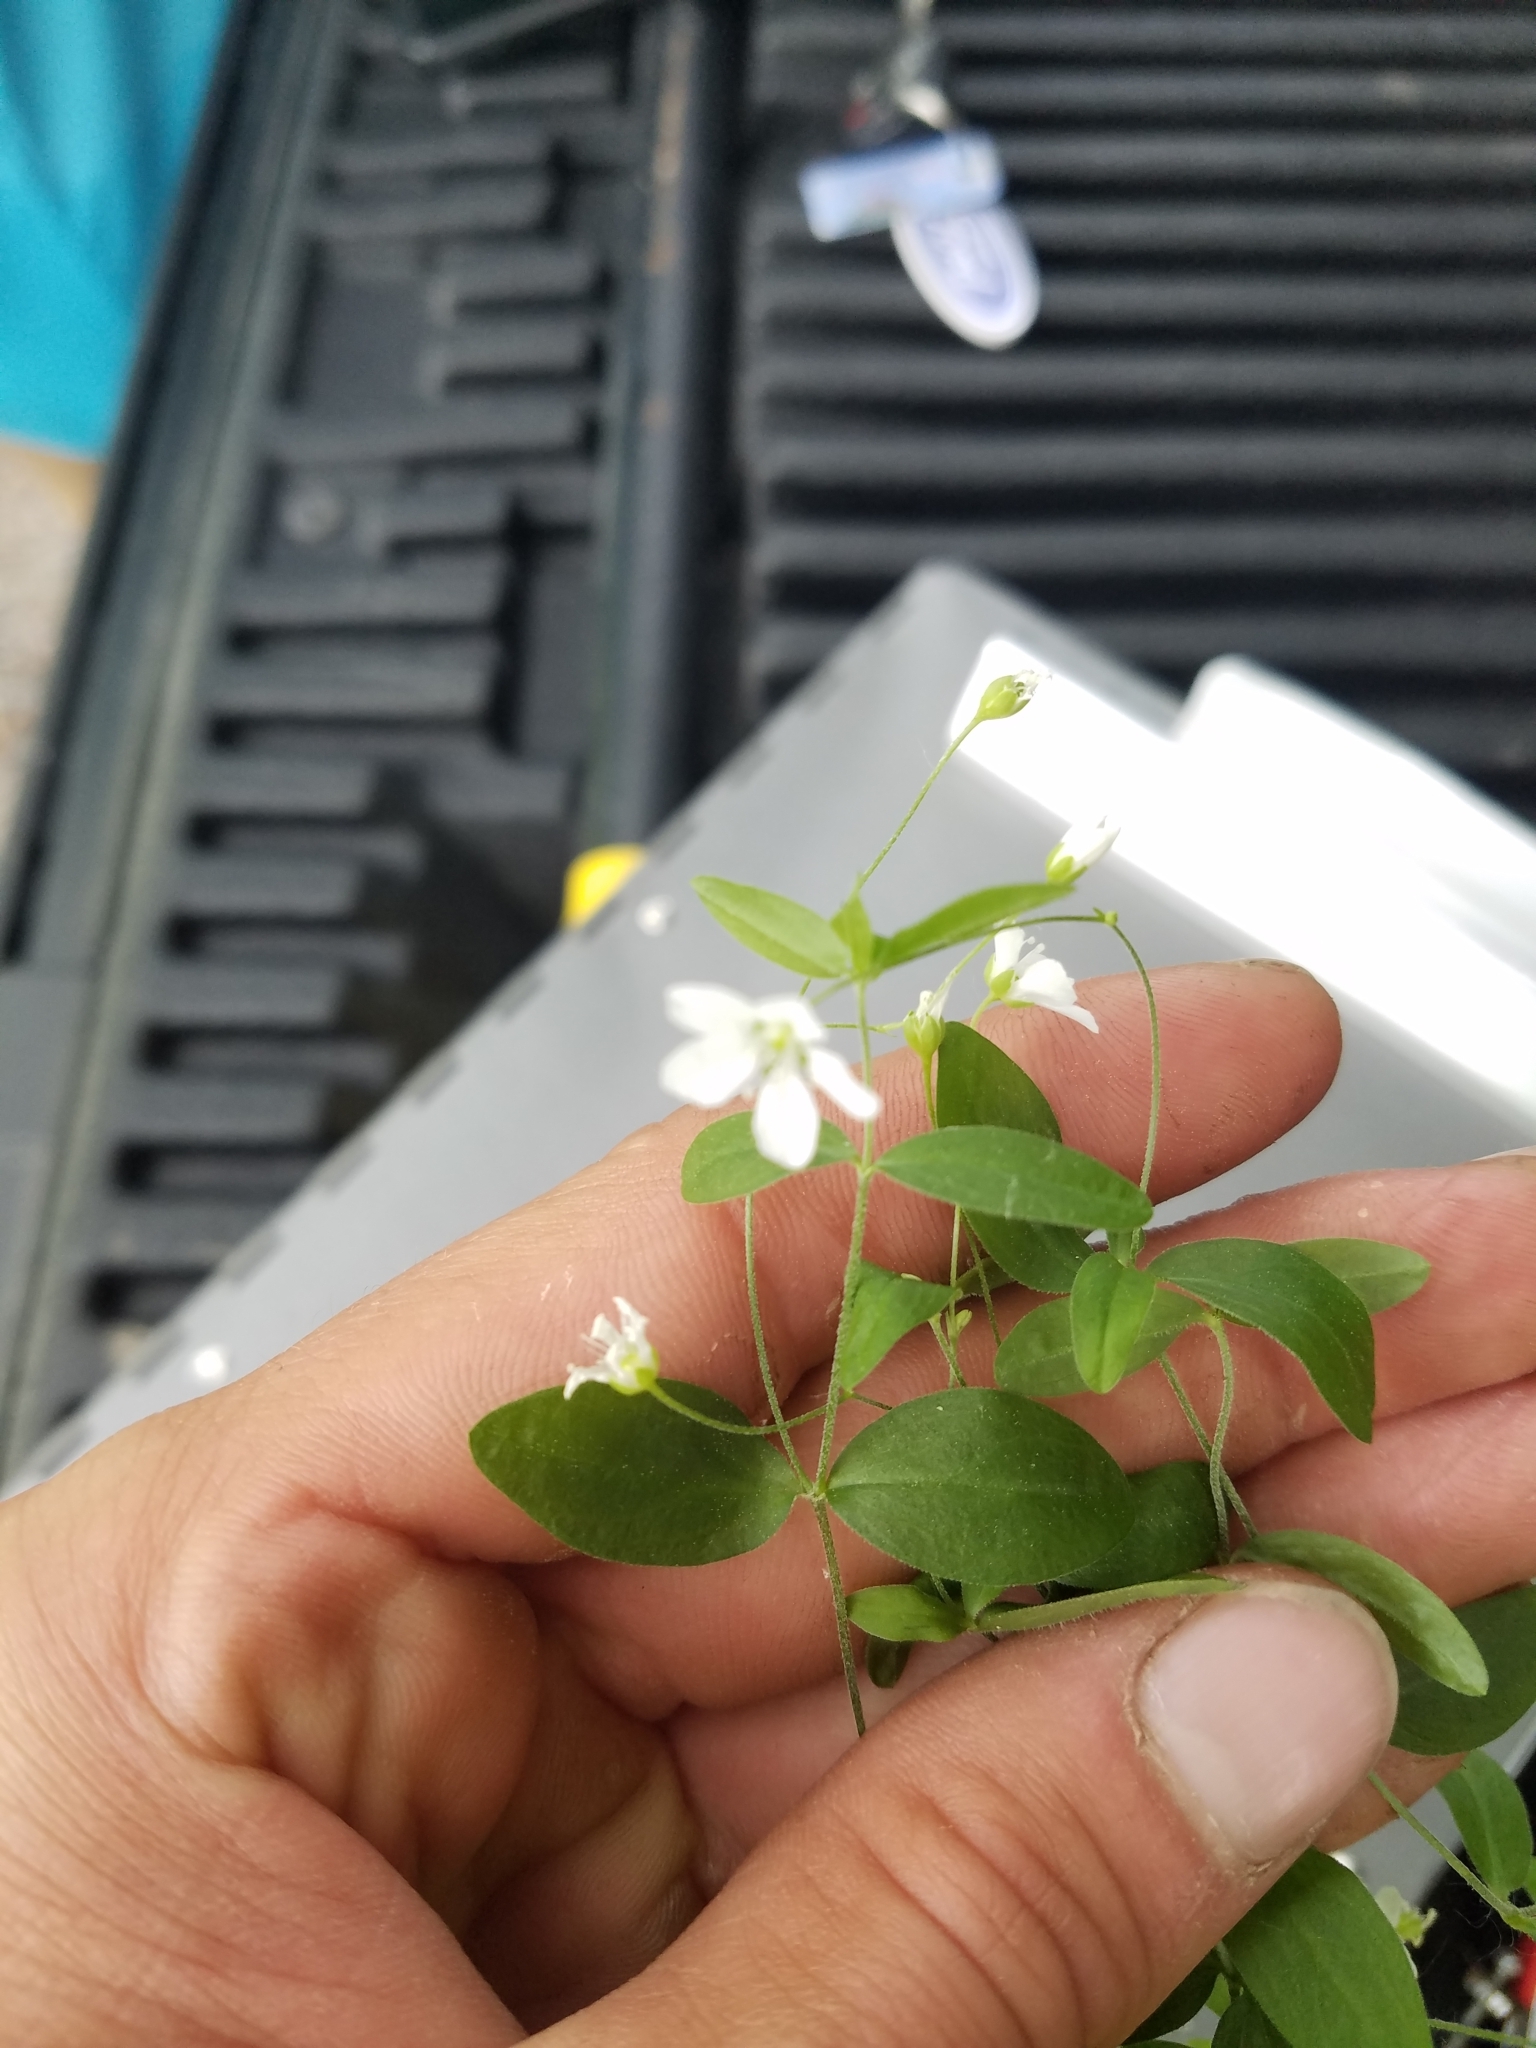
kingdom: Plantae
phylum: Tracheophyta
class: Magnoliopsida
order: Caryophyllales
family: Caryophyllaceae
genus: Moehringia
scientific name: Moehringia lateriflora
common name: Blunt-leaved sandwort
